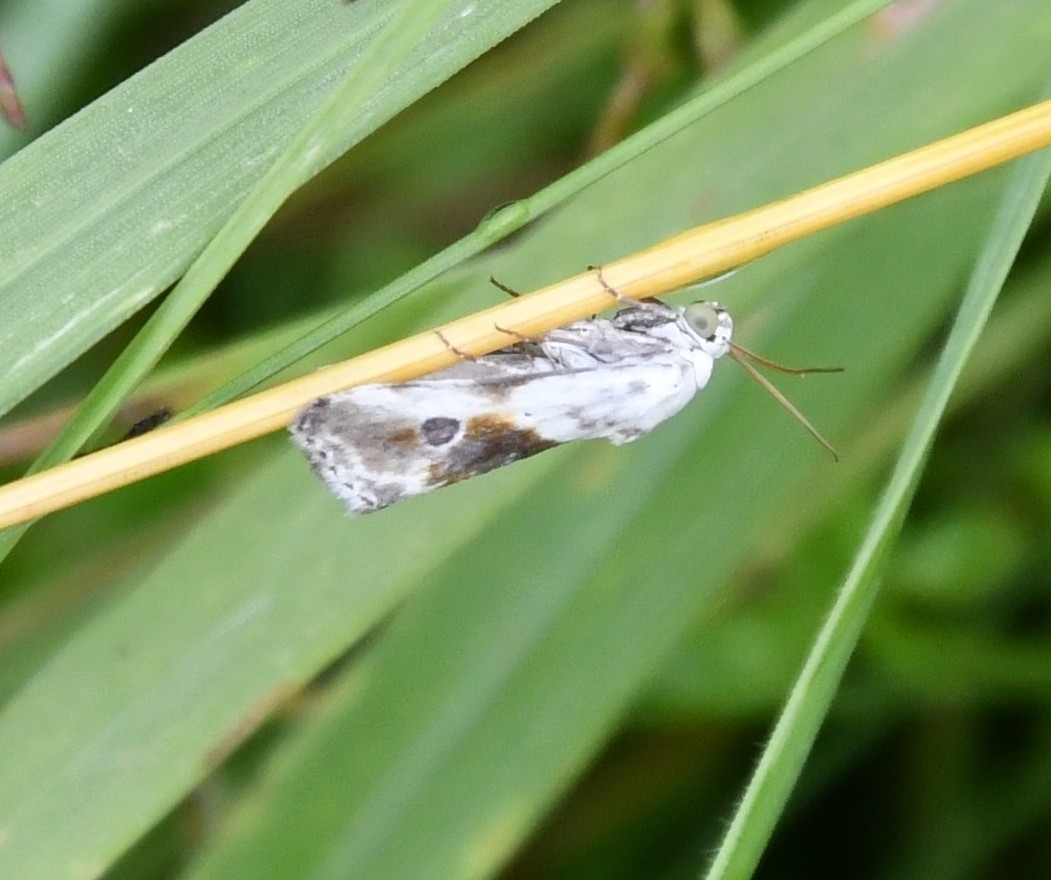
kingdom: Animalia
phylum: Arthropoda
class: Insecta
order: Lepidoptera
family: Noctuidae
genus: Acontia
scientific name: Acontia candefacta
